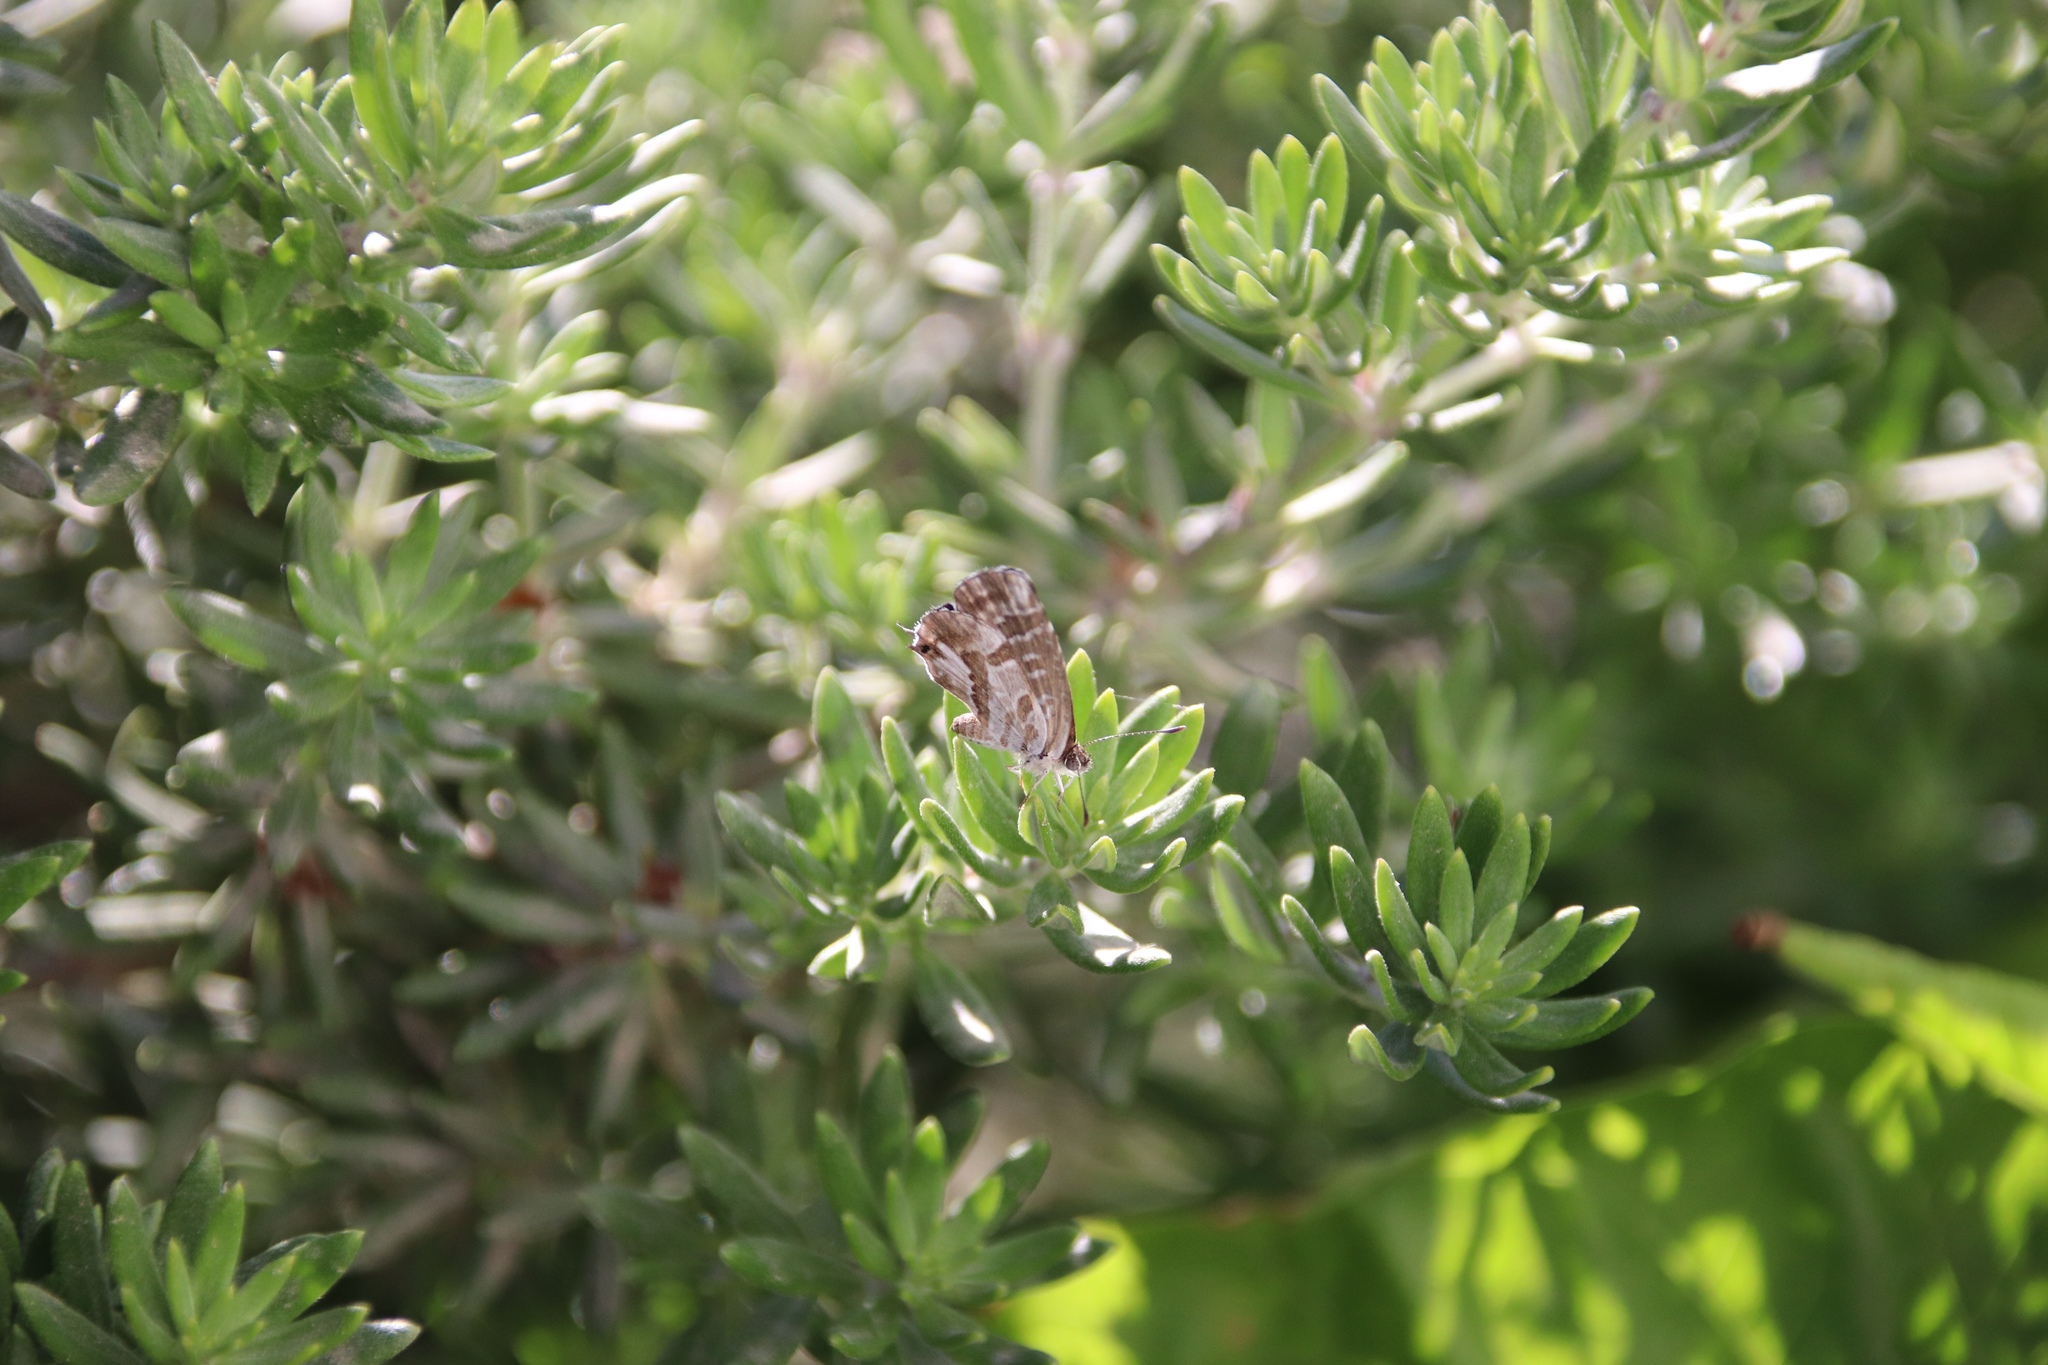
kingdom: Animalia
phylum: Arthropoda
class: Insecta
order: Lepidoptera
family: Lycaenidae
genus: Cacyreus
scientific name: Cacyreus marshalli
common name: Geranium bronze
